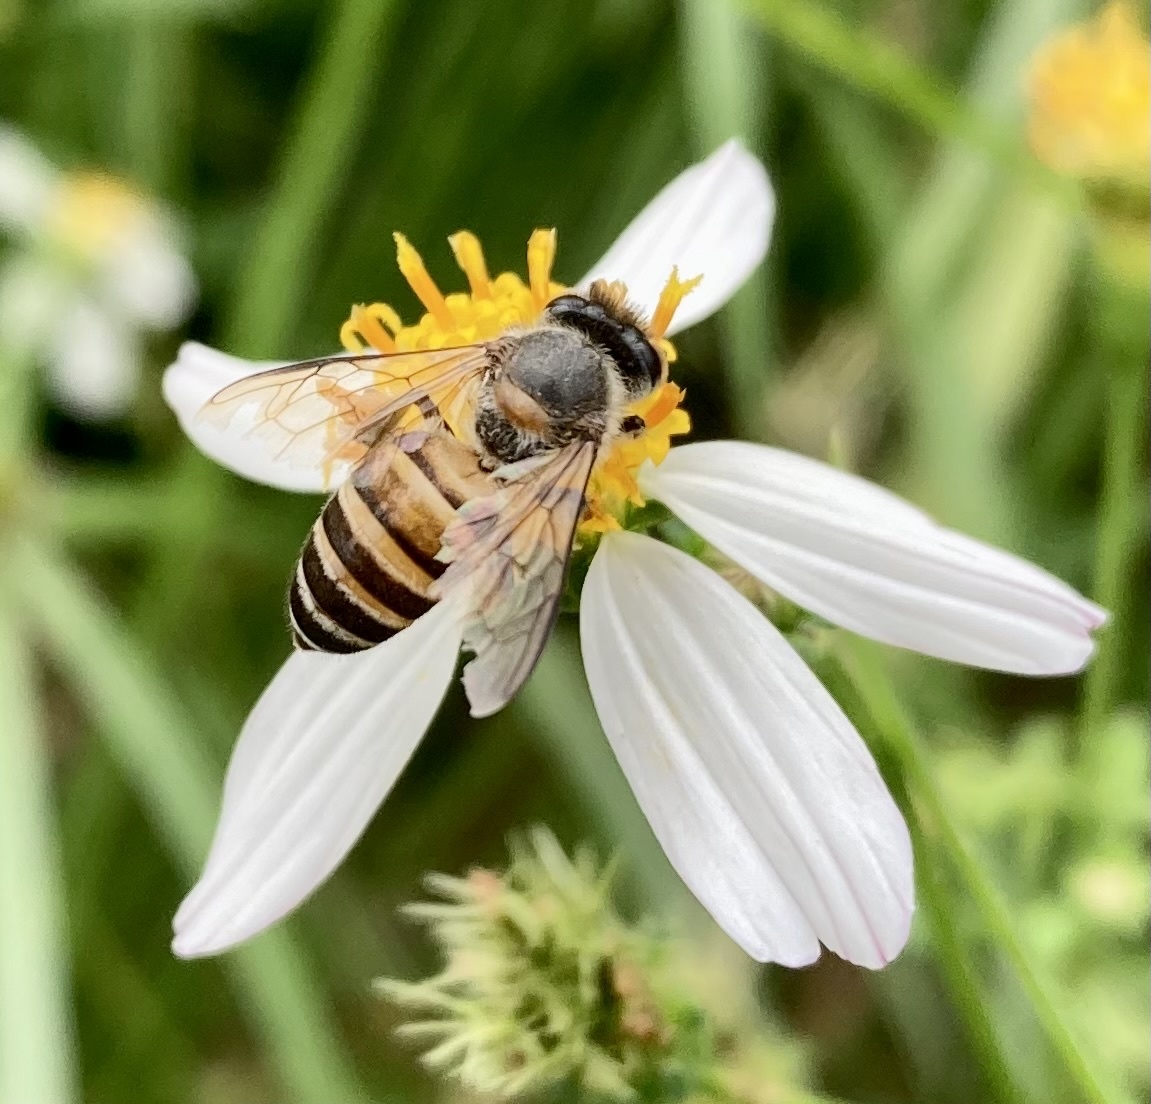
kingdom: Animalia
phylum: Arthropoda
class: Insecta
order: Hymenoptera
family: Apidae
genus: Apis
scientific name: Apis cerana
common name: Honey bee
